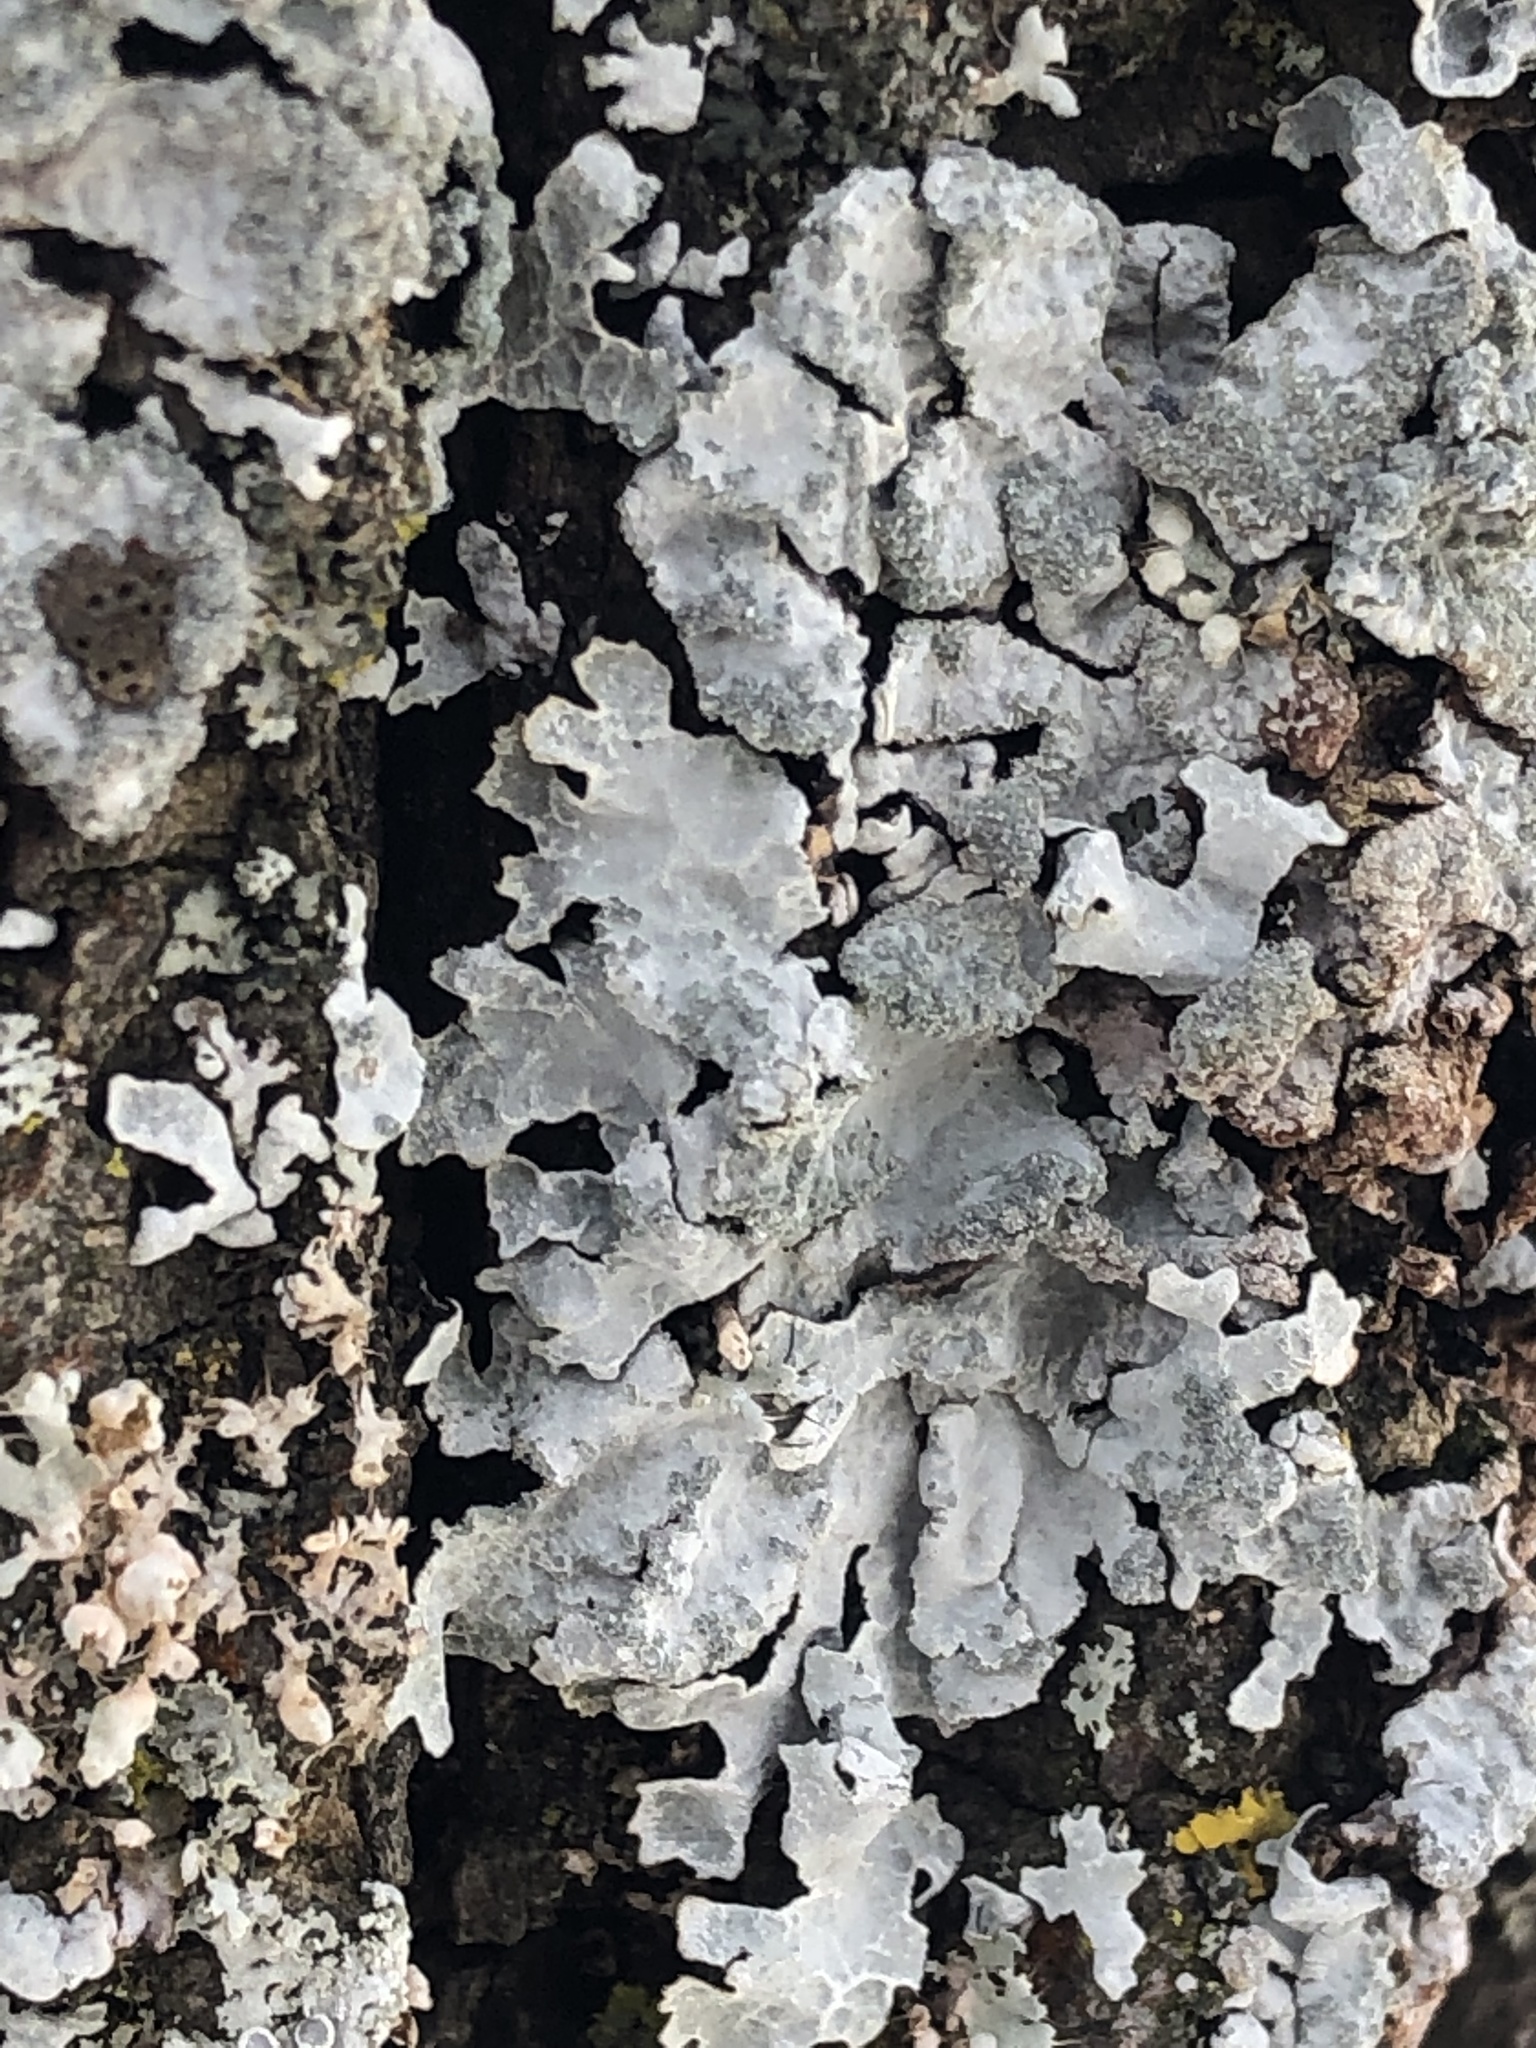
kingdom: Fungi
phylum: Ascomycota
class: Lecanoromycetes
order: Lecanorales
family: Parmeliaceae
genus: Parmelia
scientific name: Parmelia sulcata
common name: Netted shield lichen
